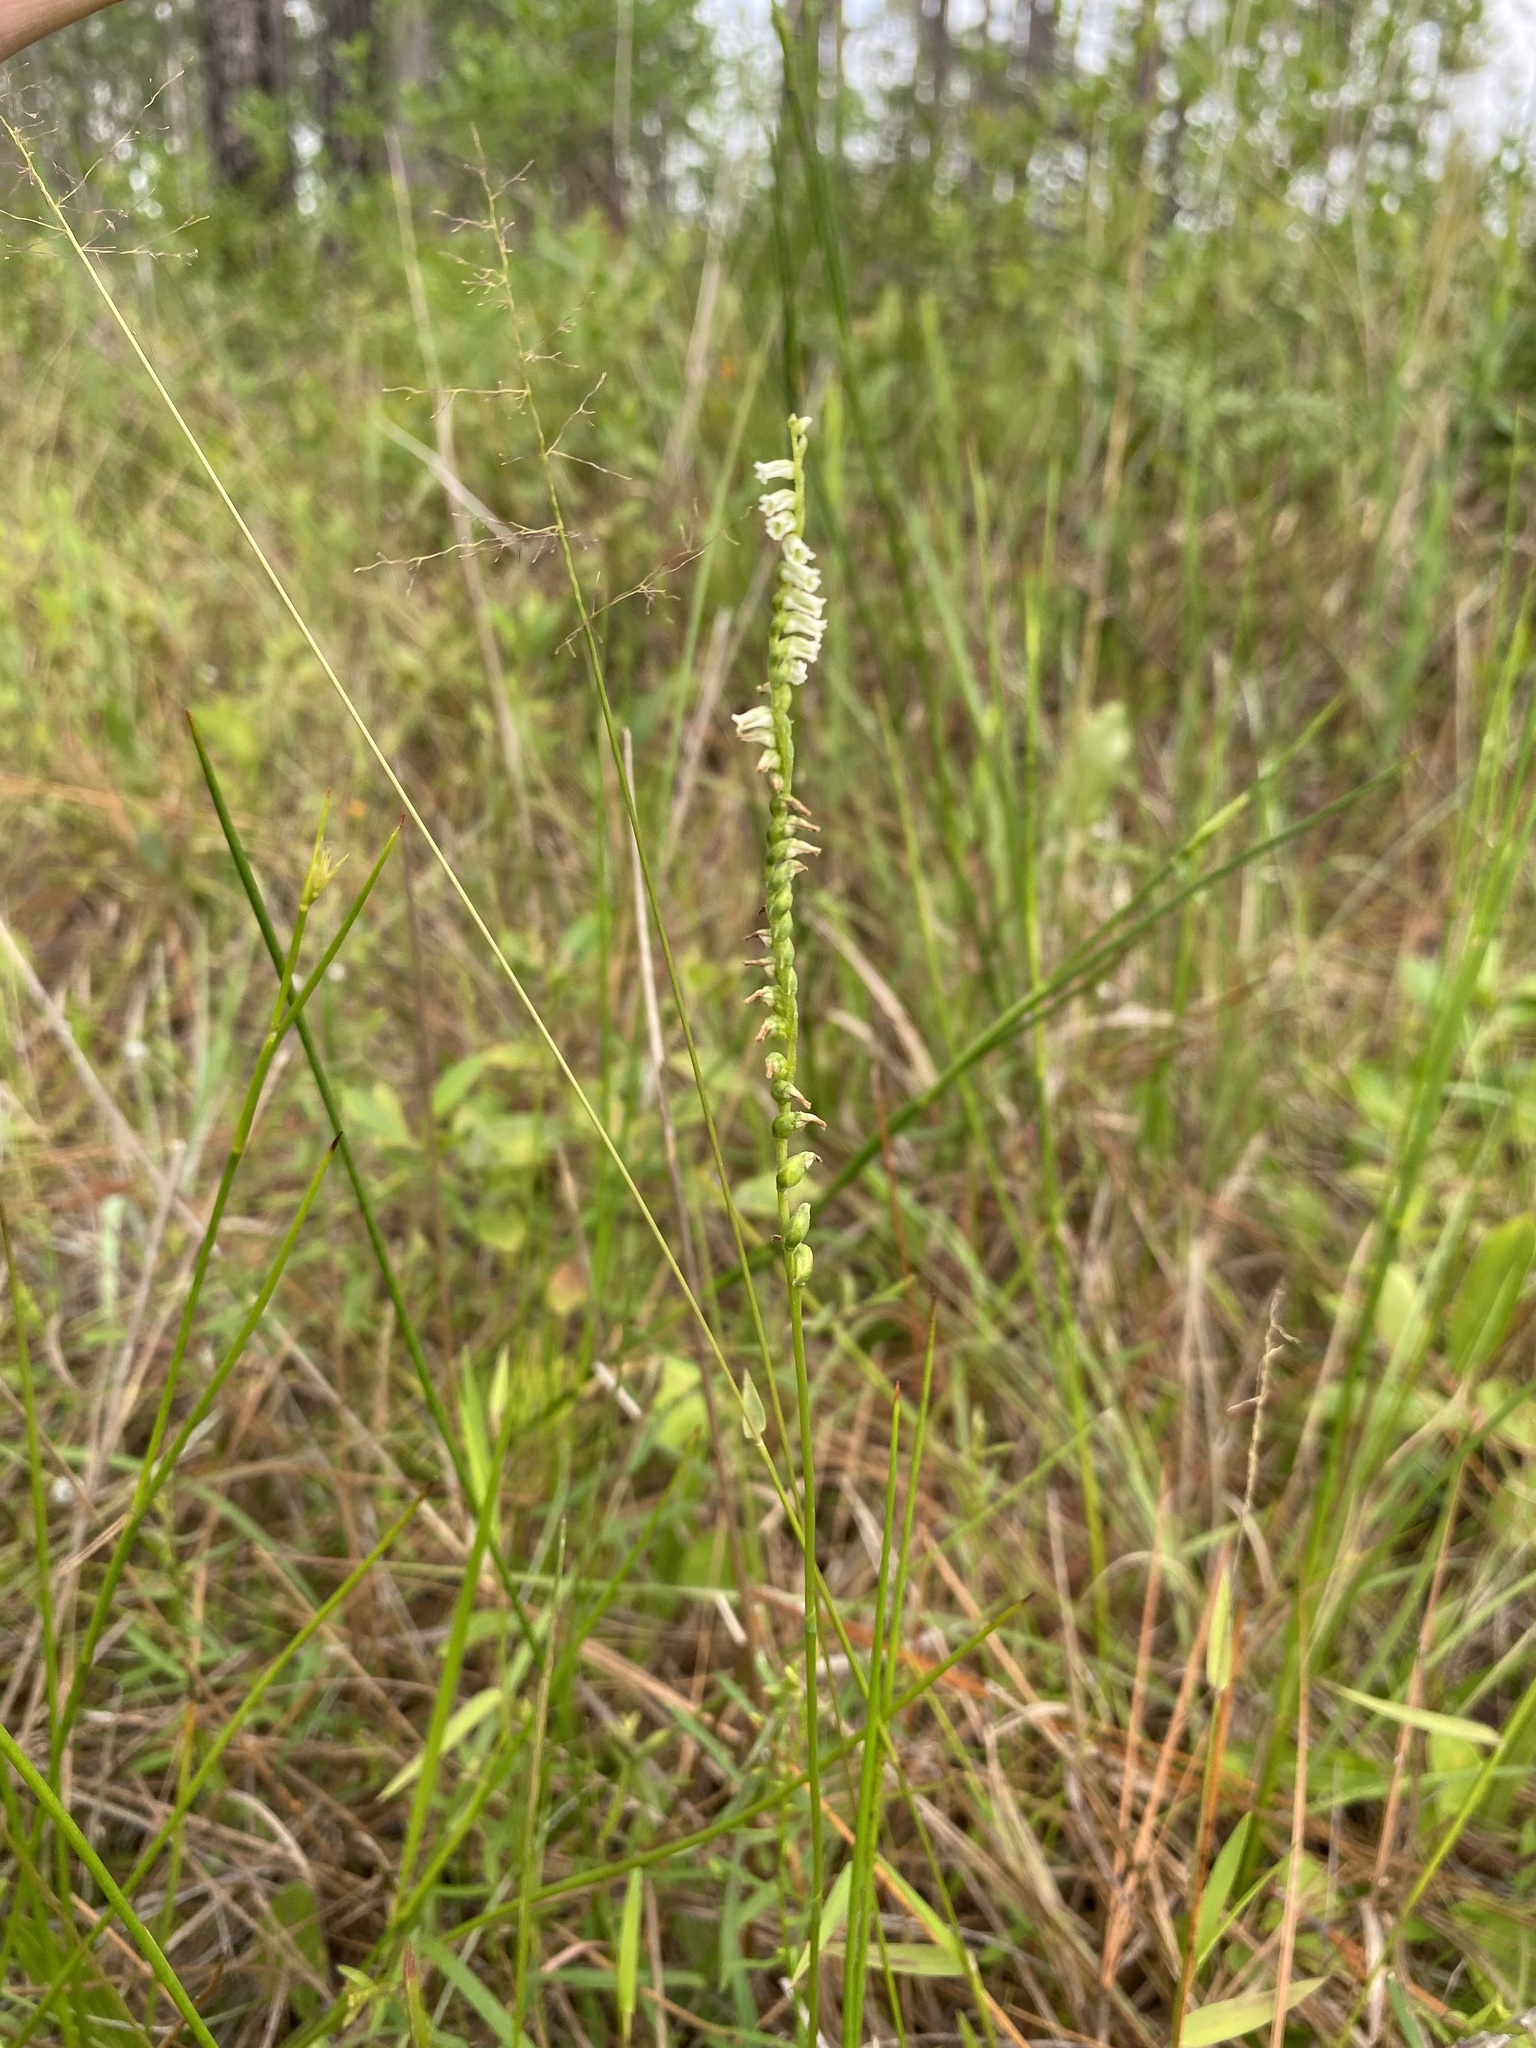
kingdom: Plantae
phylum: Tracheophyta
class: Liliopsida
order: Asparagales
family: Orchidaceae
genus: Spiranthes
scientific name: Spiranthes eatonii
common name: Eaton's lady's tresses
